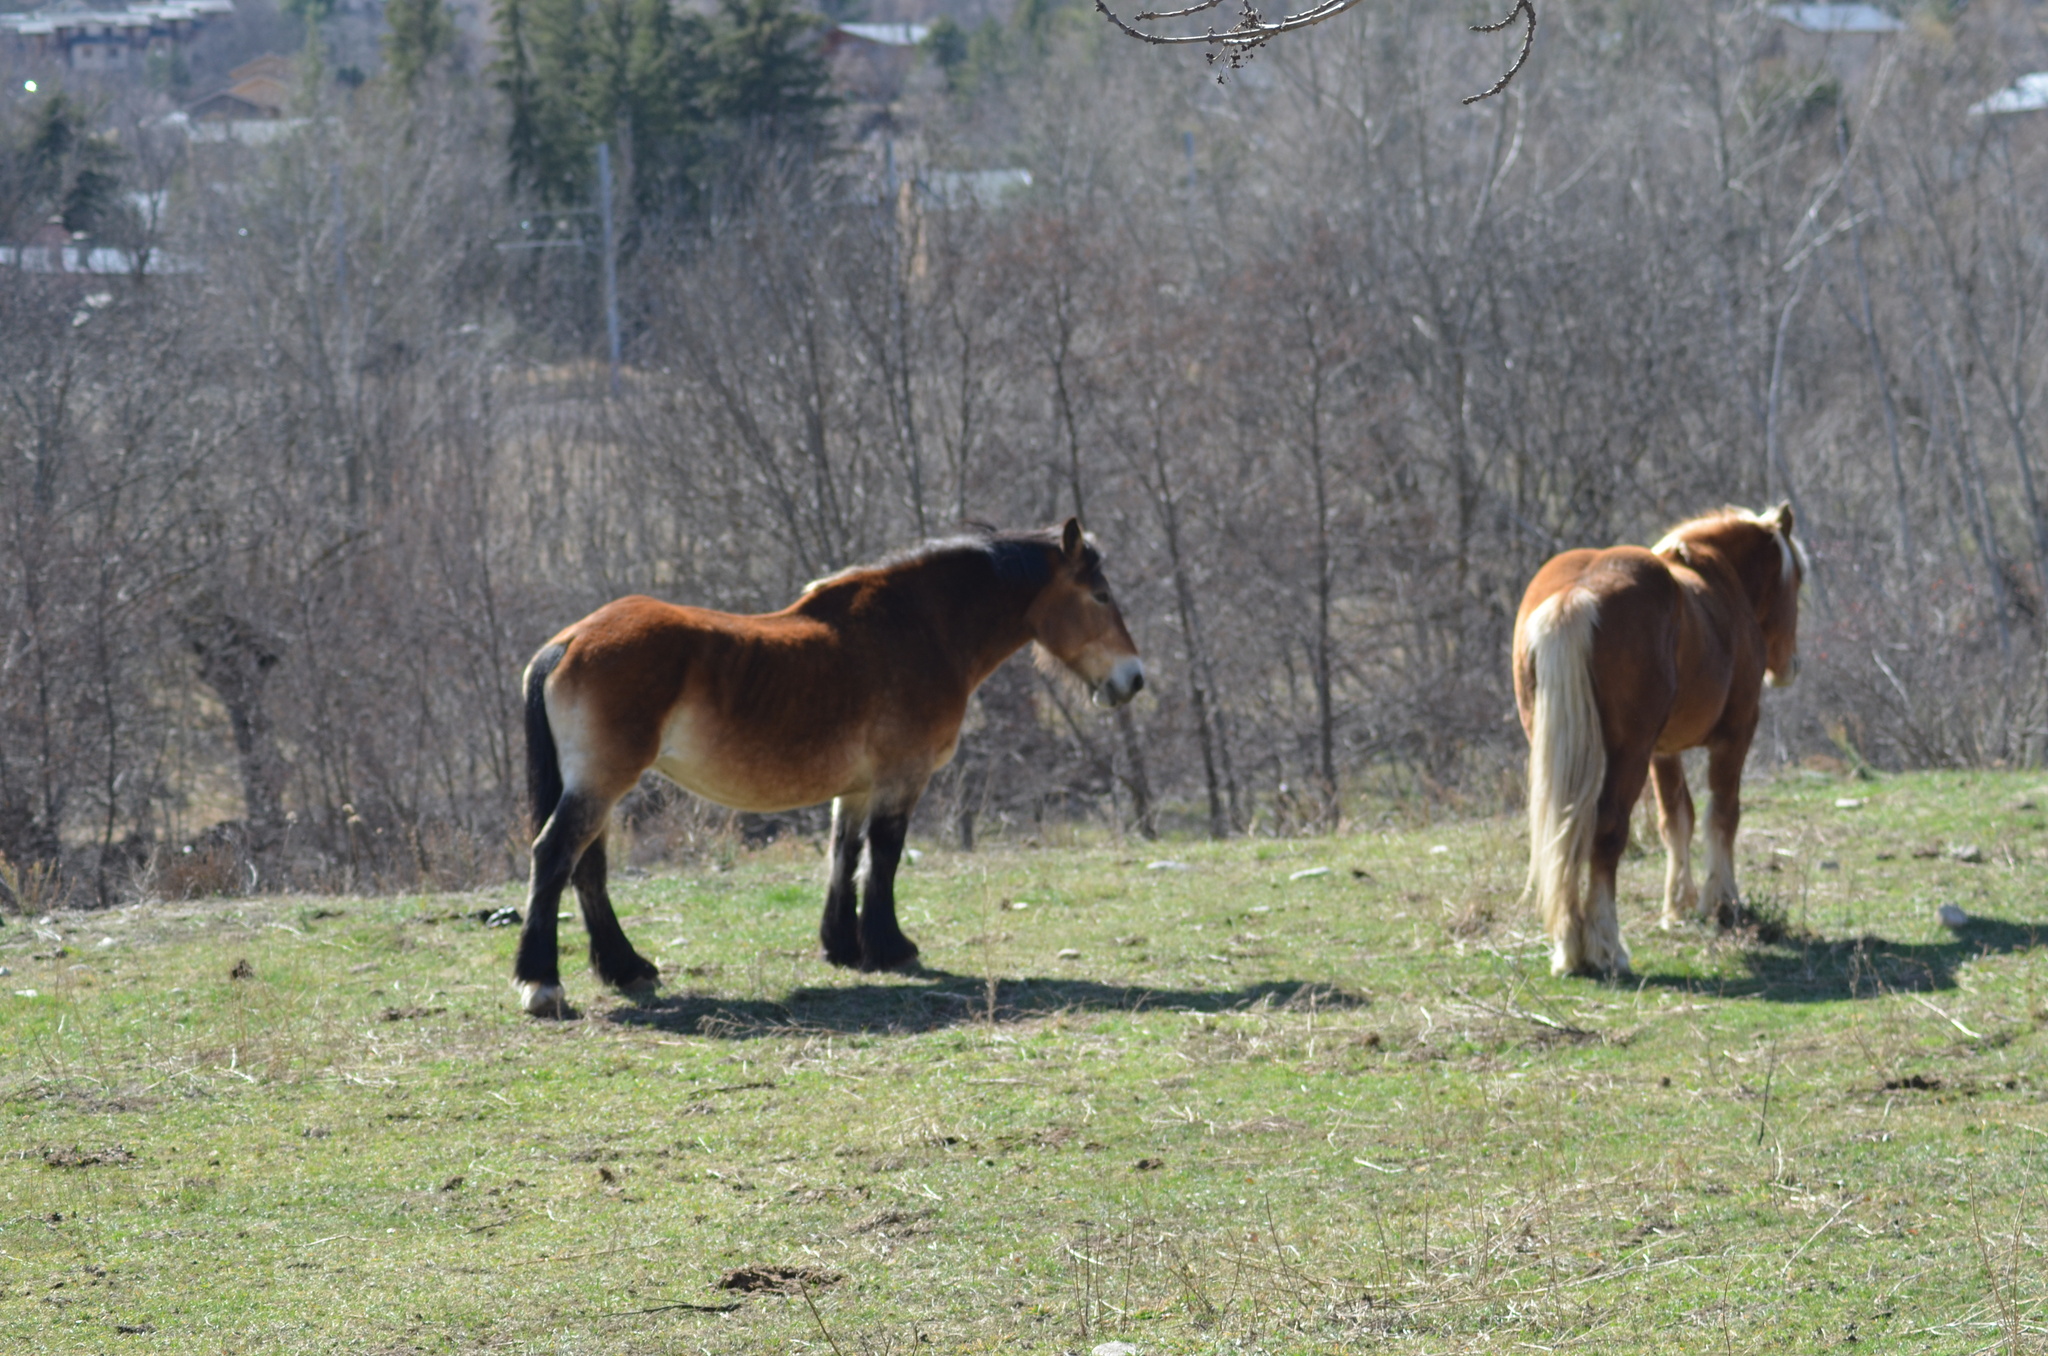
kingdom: Animalia
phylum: Chordata
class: Mammalia
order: Perissodactyla
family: Equidae
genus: Equus
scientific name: Equus caballus
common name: Horse
